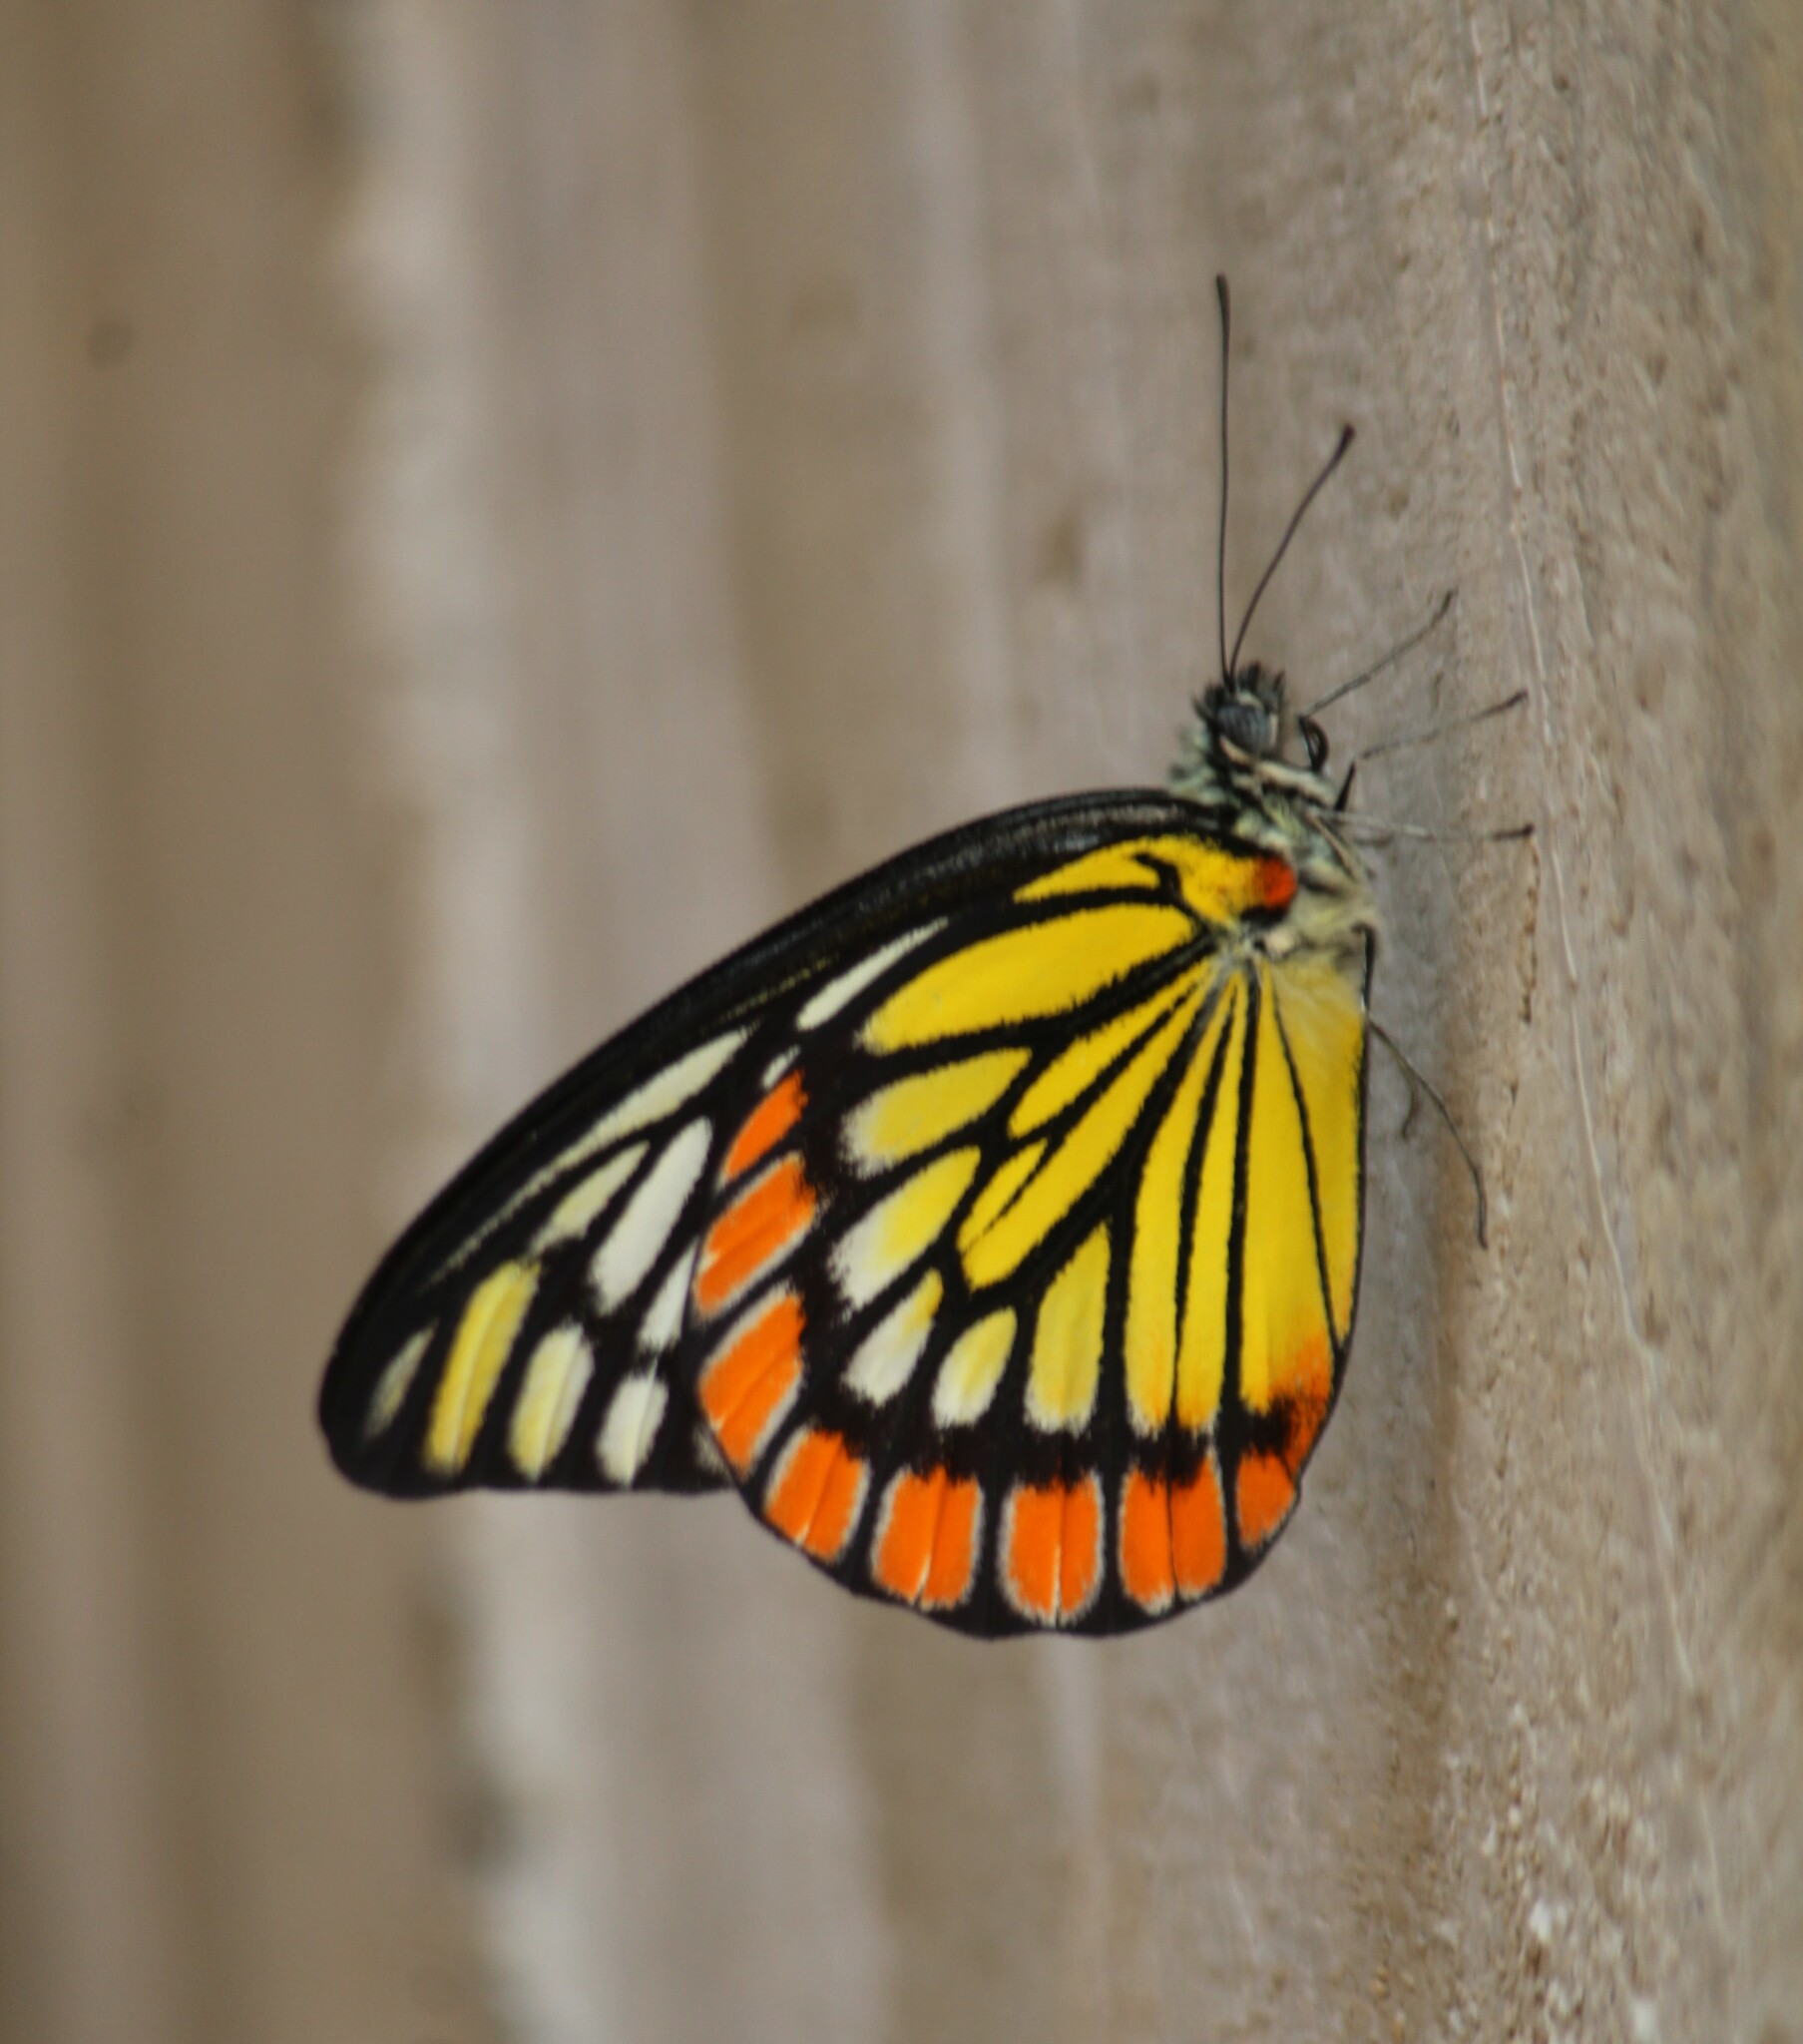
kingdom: Animalia
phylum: Arthropoda
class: Insecta
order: Lepidoptera
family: Pieridae
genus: Prioneris
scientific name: Prioneris sita
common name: Painted sawtooth
